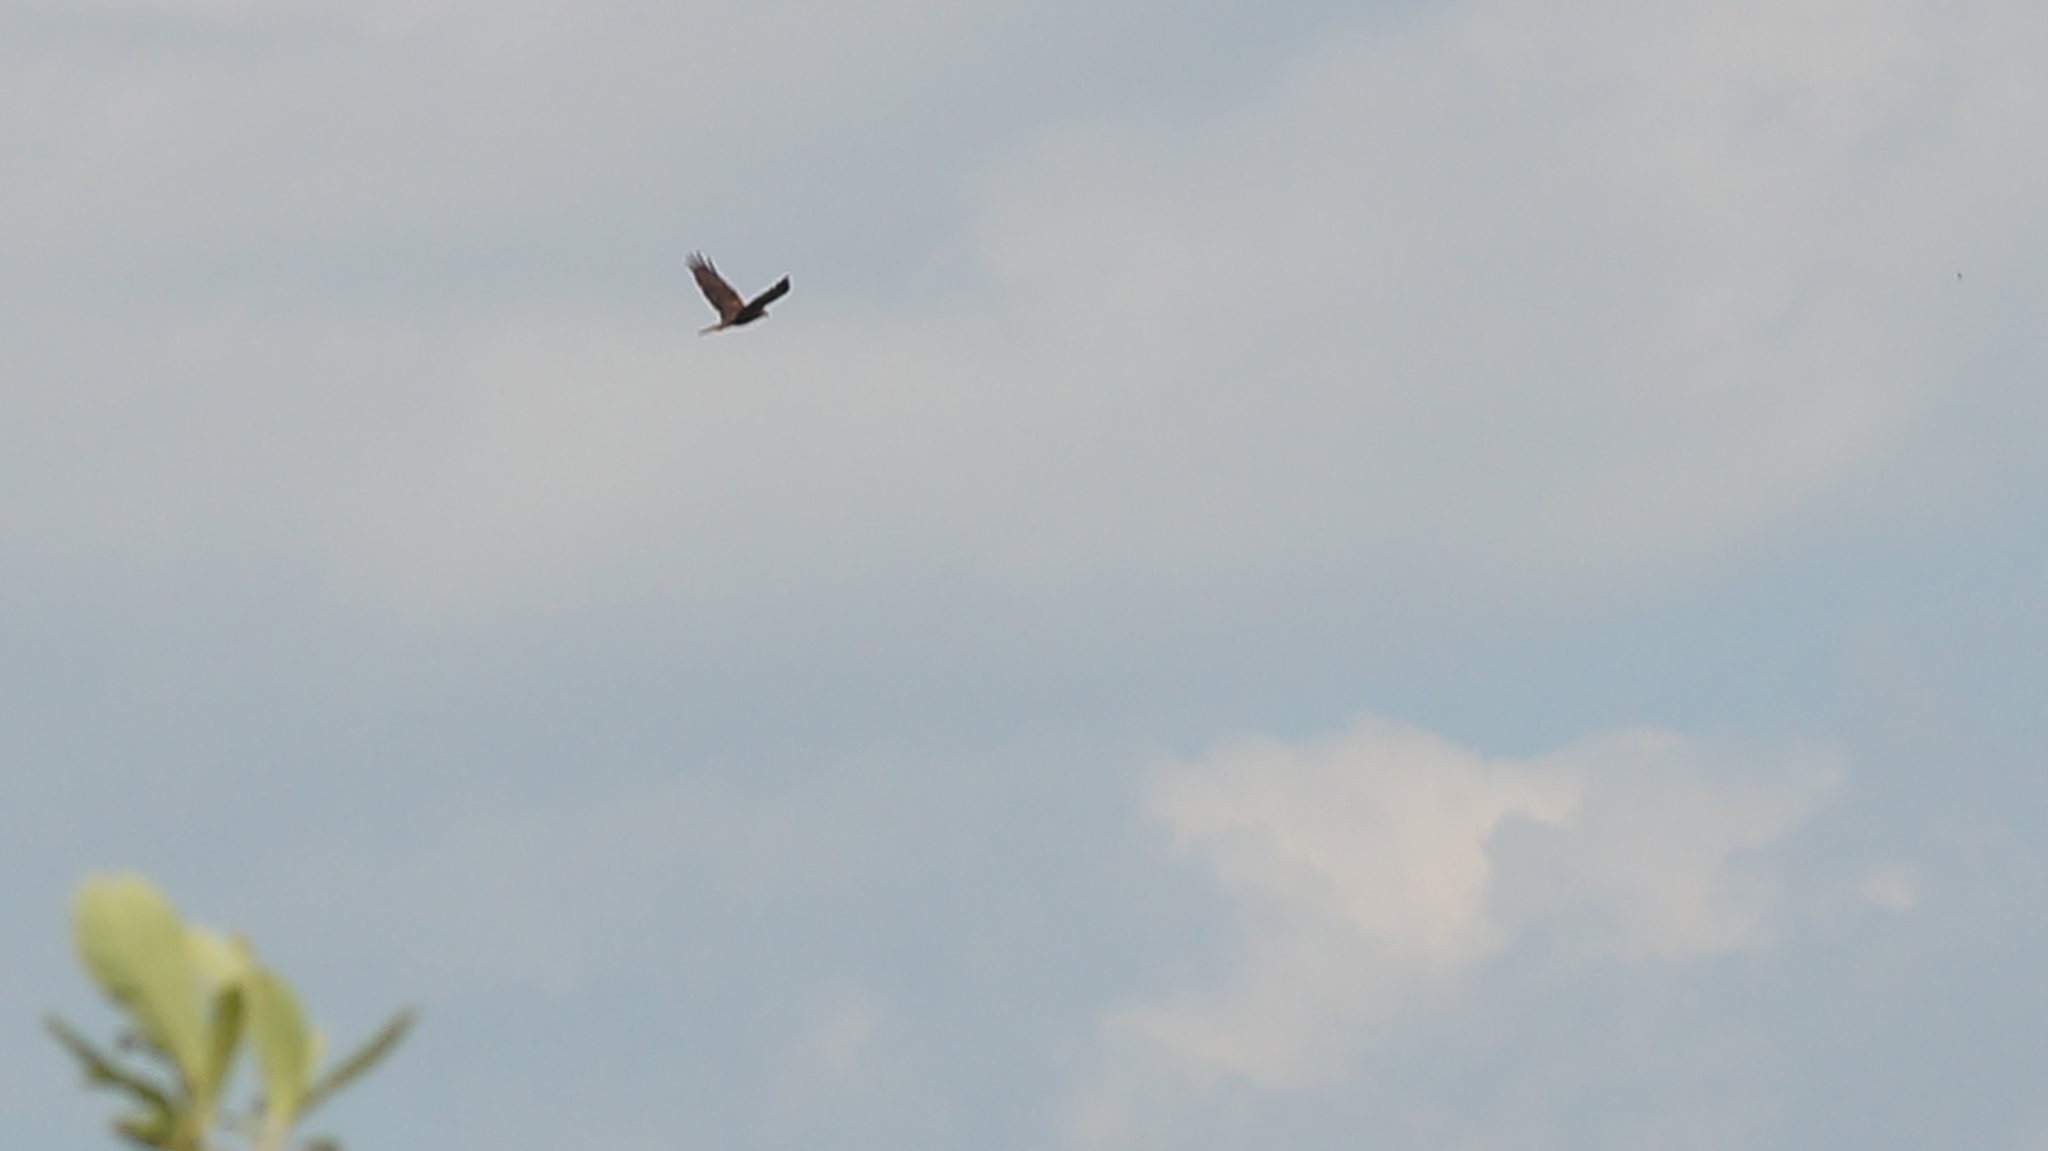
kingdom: Animalia
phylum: Chordata
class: Aves
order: Accipitriformes
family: Accipitridae
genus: Circus
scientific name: Circus aeruginosus
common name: Western marsh harrier
